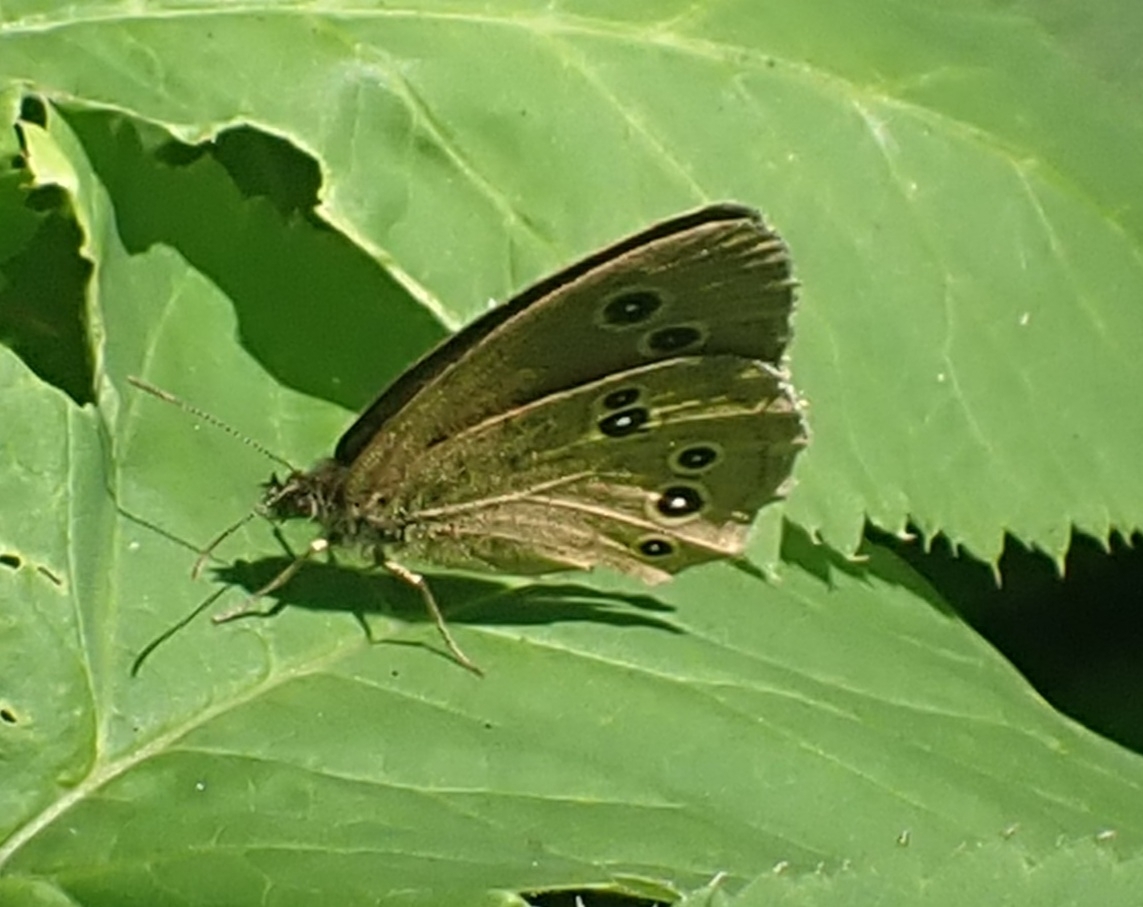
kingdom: Animalia
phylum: Arthropoda
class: Insecta
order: Lepidoptera
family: Nymphalidae
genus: Aphantopus
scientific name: Aphantopus hyperantus
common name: Ringlet
